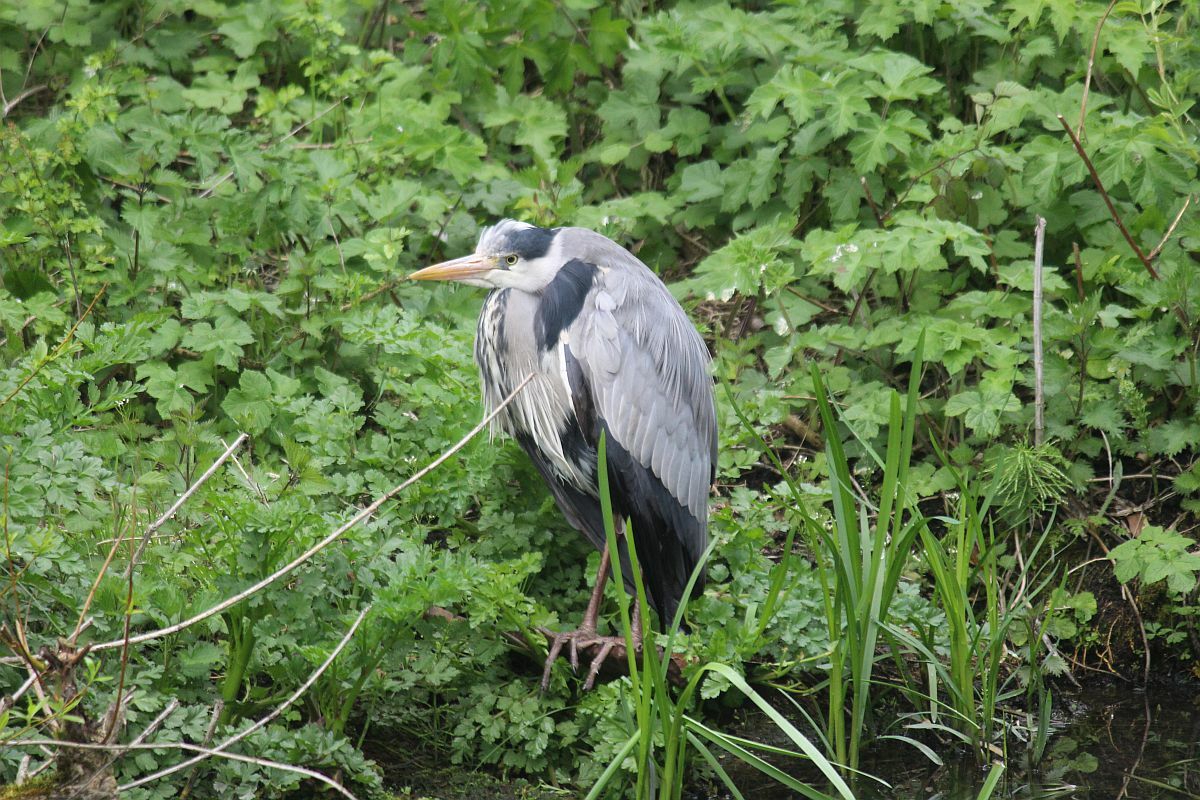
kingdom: Animalia
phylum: Chordata
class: Aves
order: Pelecaniformes
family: Ardeidae
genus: Ardea
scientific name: Ardea cinerea
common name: Grey heron
